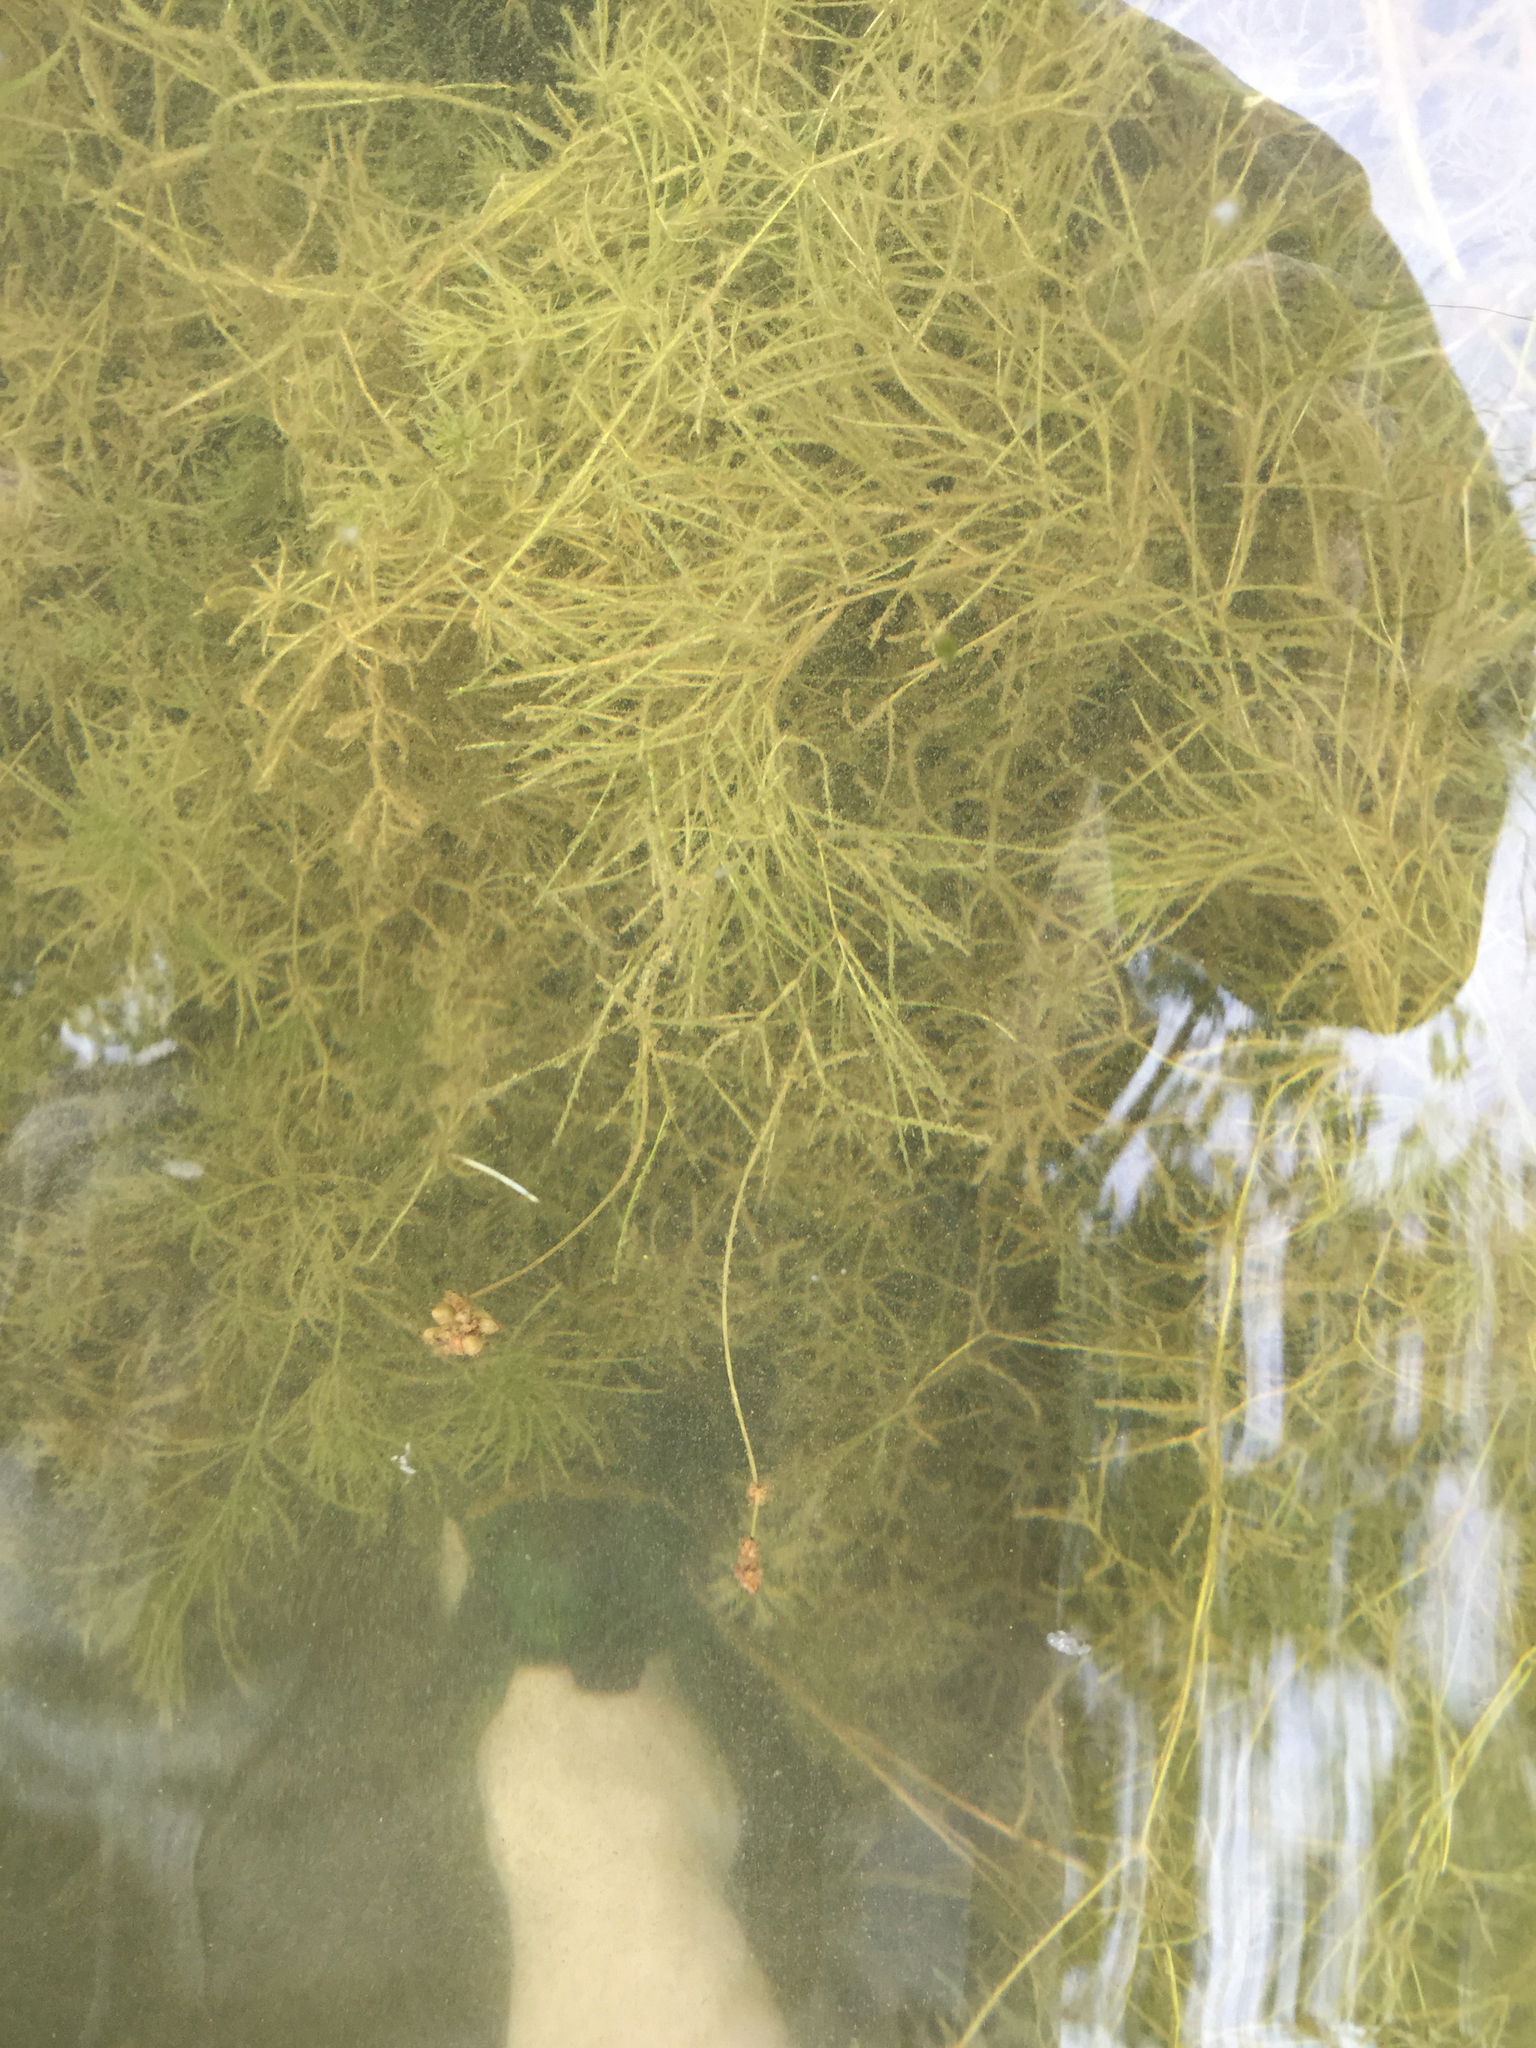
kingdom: Plantae
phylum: Tracheophyta
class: Liliopsida
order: Alismatales
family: Potamogetonaceae
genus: Stuckenia
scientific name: Stuckenia pectinata
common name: Sago pondweed
